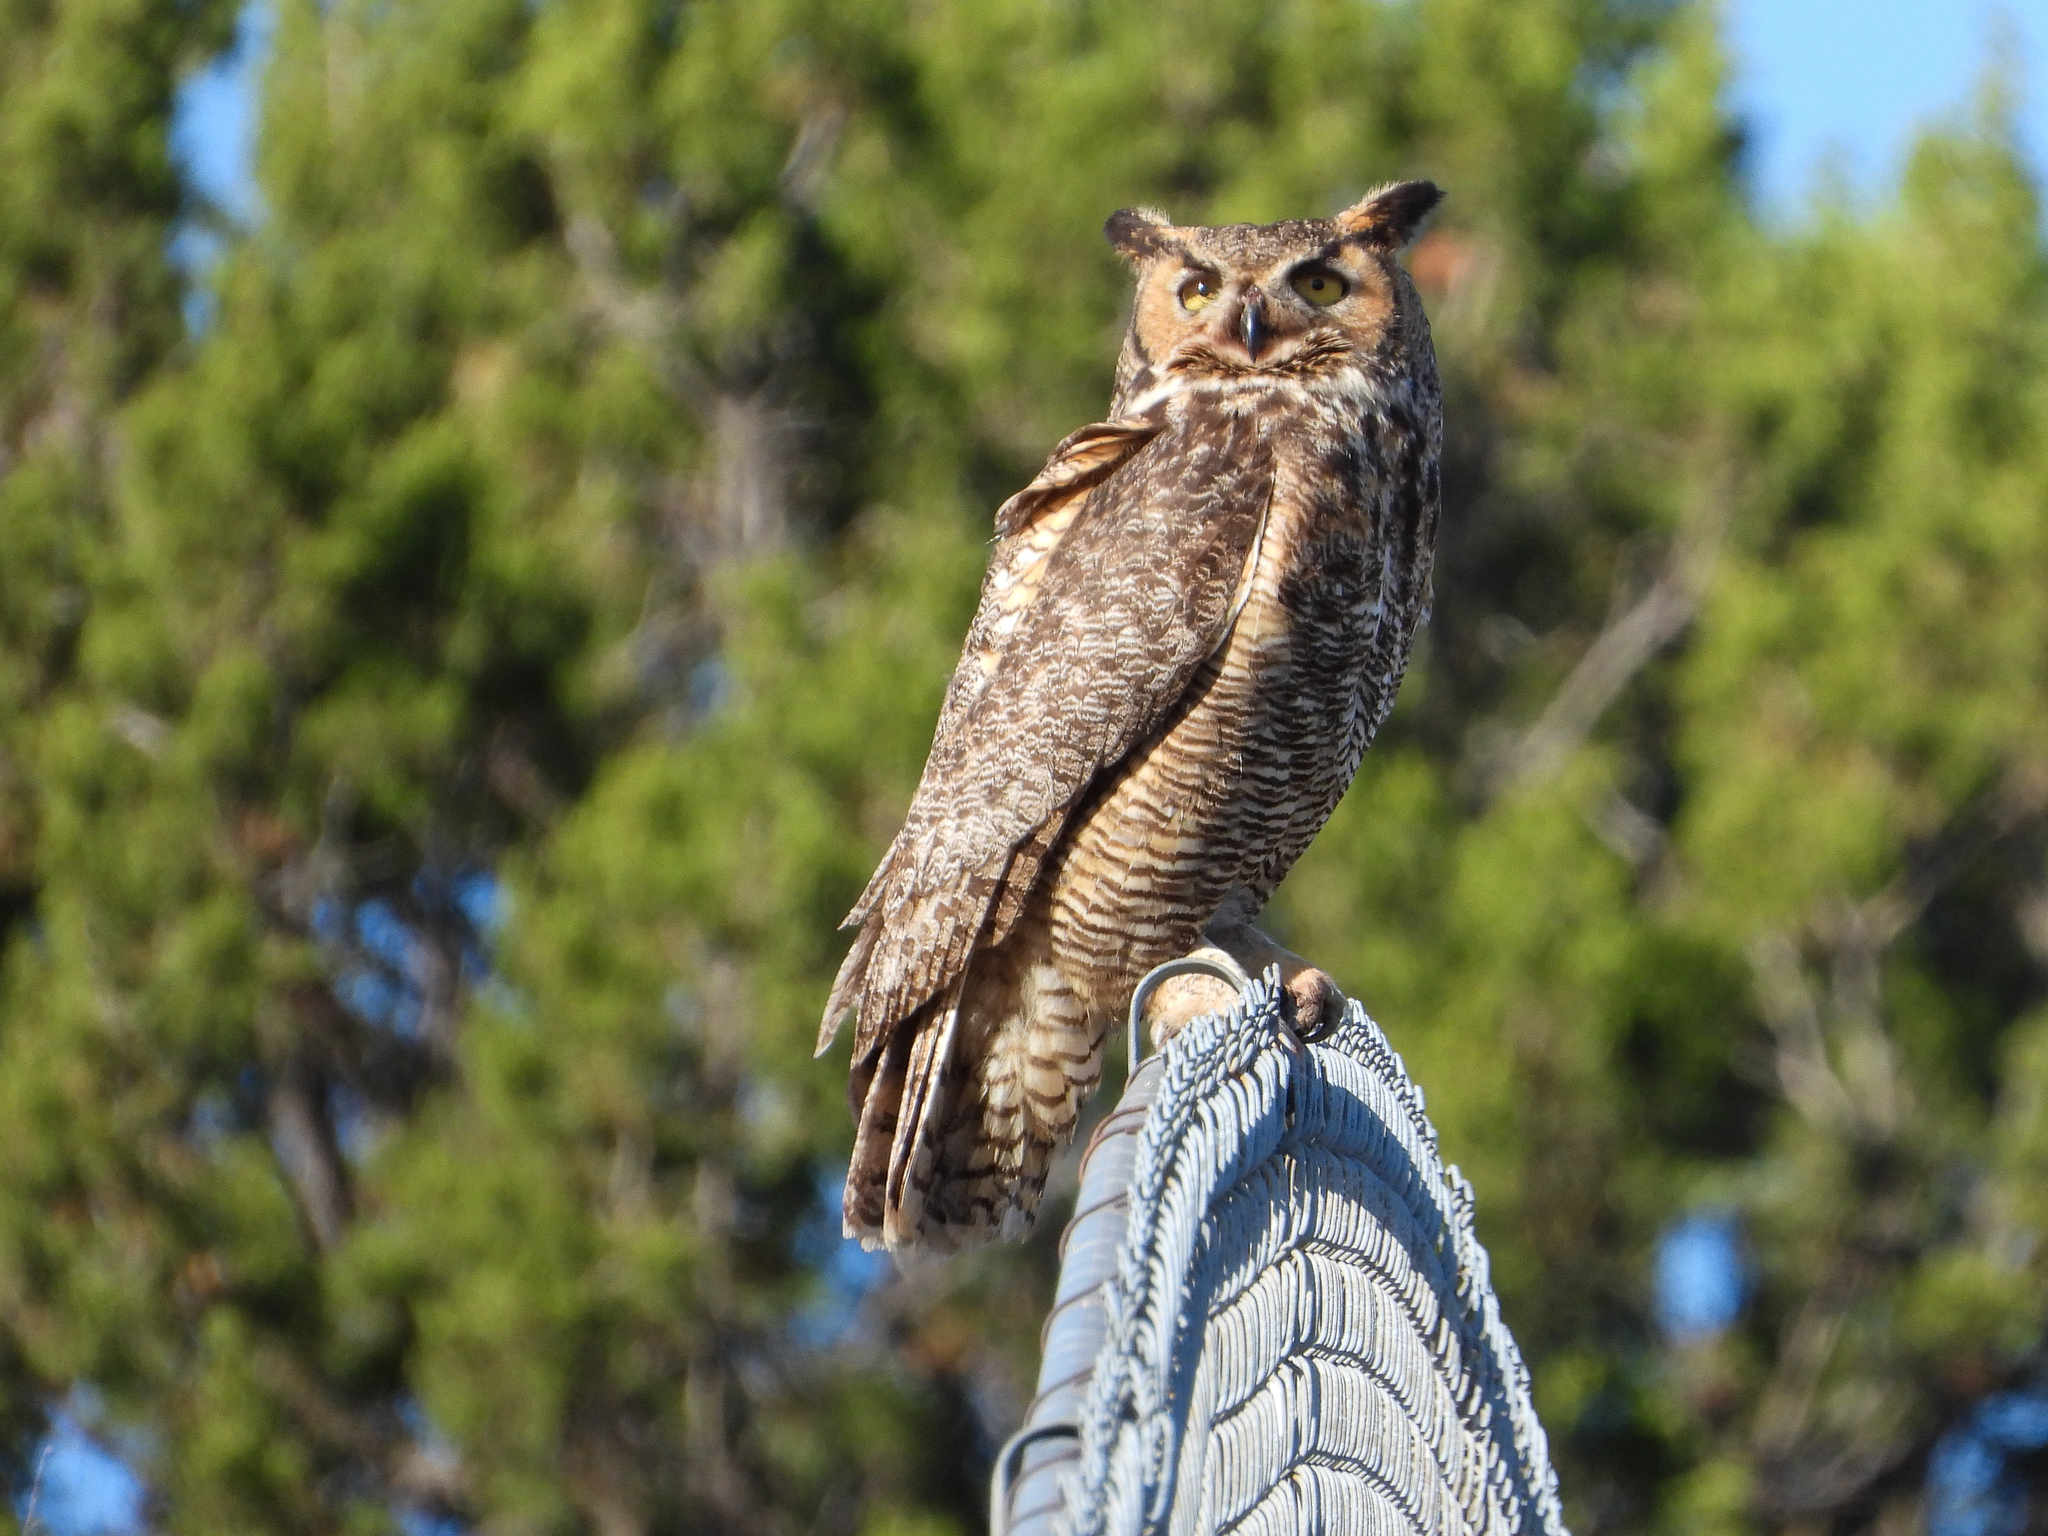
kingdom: Animalia
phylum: Chordata
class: Aves
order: Strigiformes
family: Strigidae
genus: Bubo
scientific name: Bubo virginianus
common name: Great horned owl
